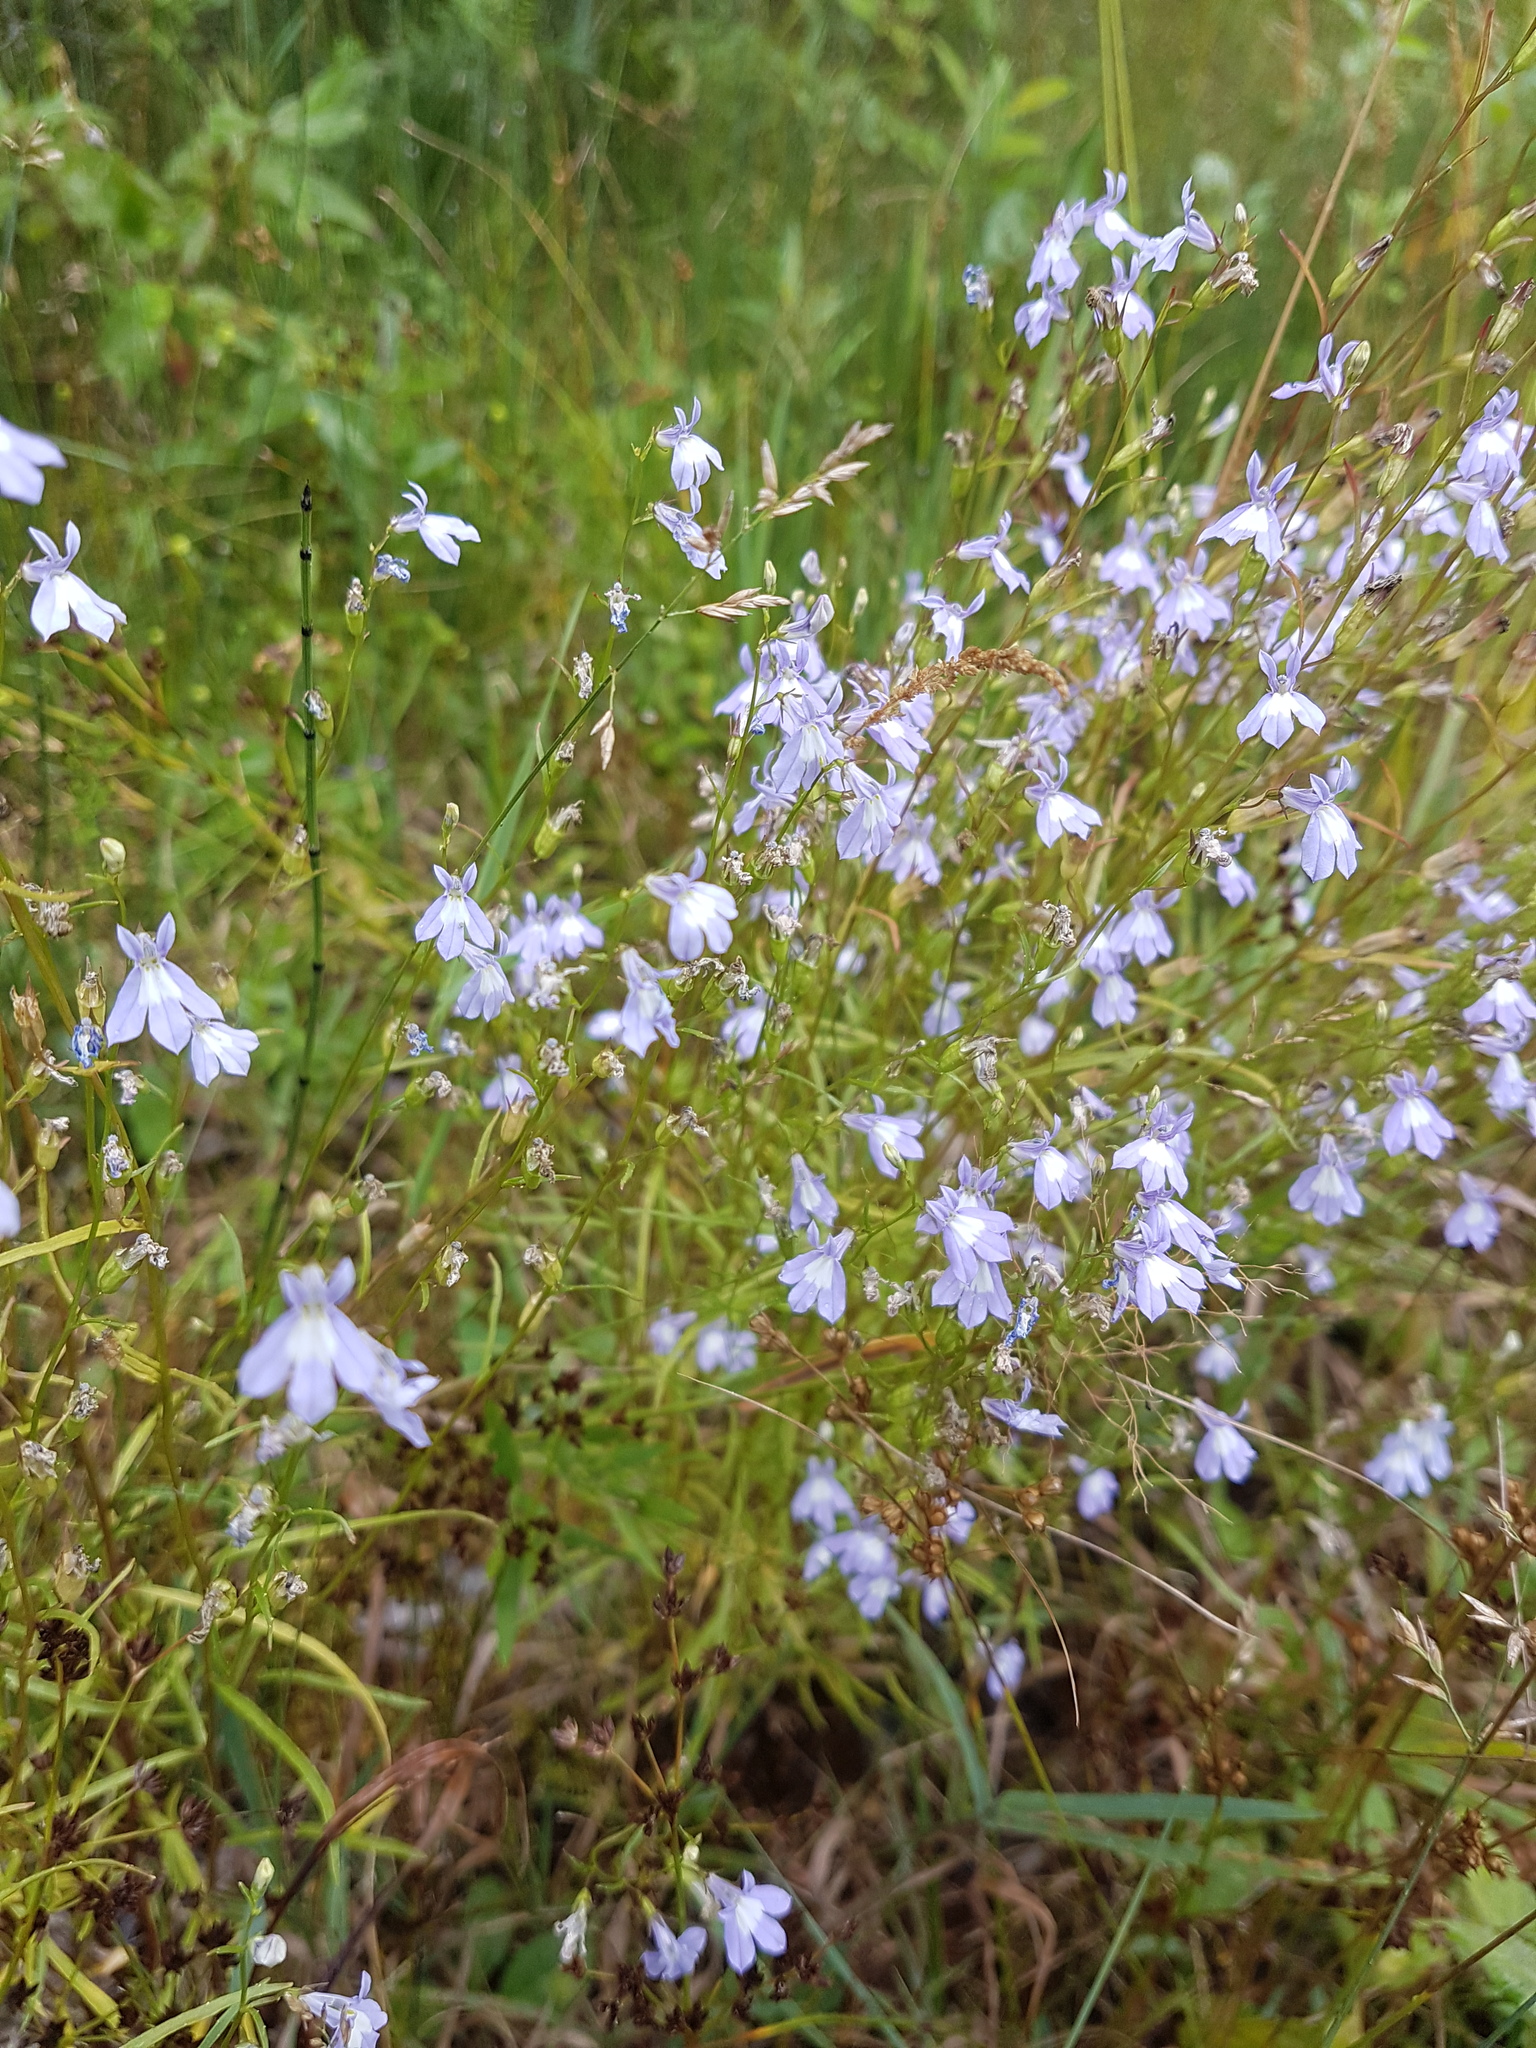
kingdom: Plantae
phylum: Tracheophyta
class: Magnoliopsida
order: Asterales
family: Campanulaceae
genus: Lobelia
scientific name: Lobelia kalmii
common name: Kalm's lobelia
